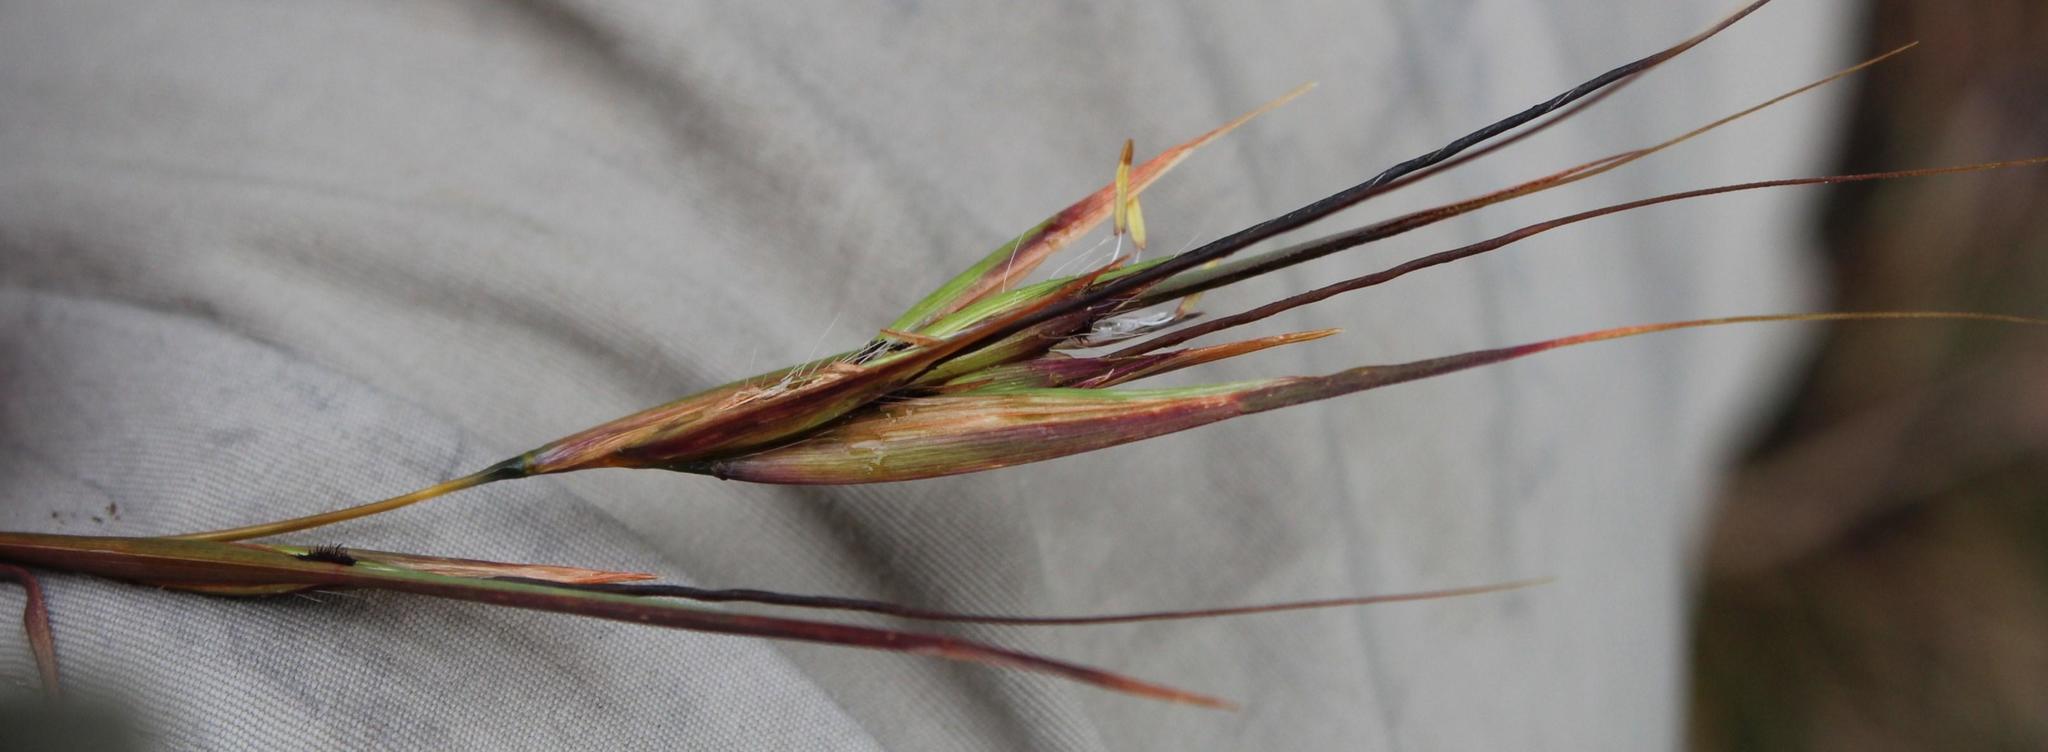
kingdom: Plantae
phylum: Tracheophyta
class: Liliopsida
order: Poales
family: Poaceae
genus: Themeda
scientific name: Themeda triandra
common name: Kangaroo grass
